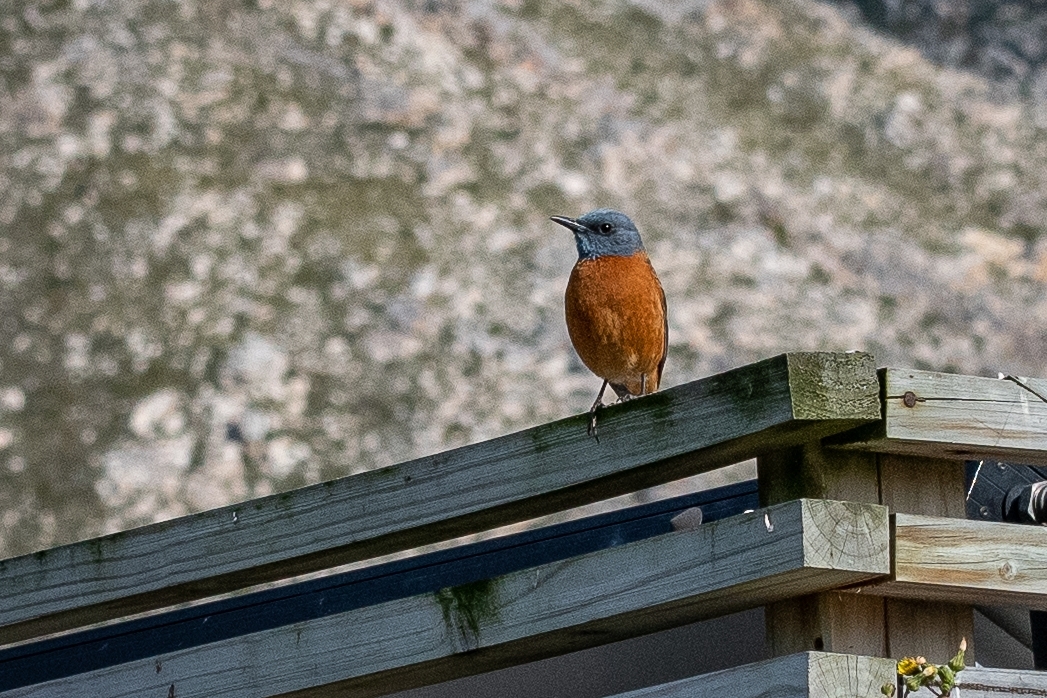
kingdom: Animalia
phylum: Chordata
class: Aves
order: Passeriformes
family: Muscicapidae
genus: Monticola
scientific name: Monticola rupestris
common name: Cape rock thrush
